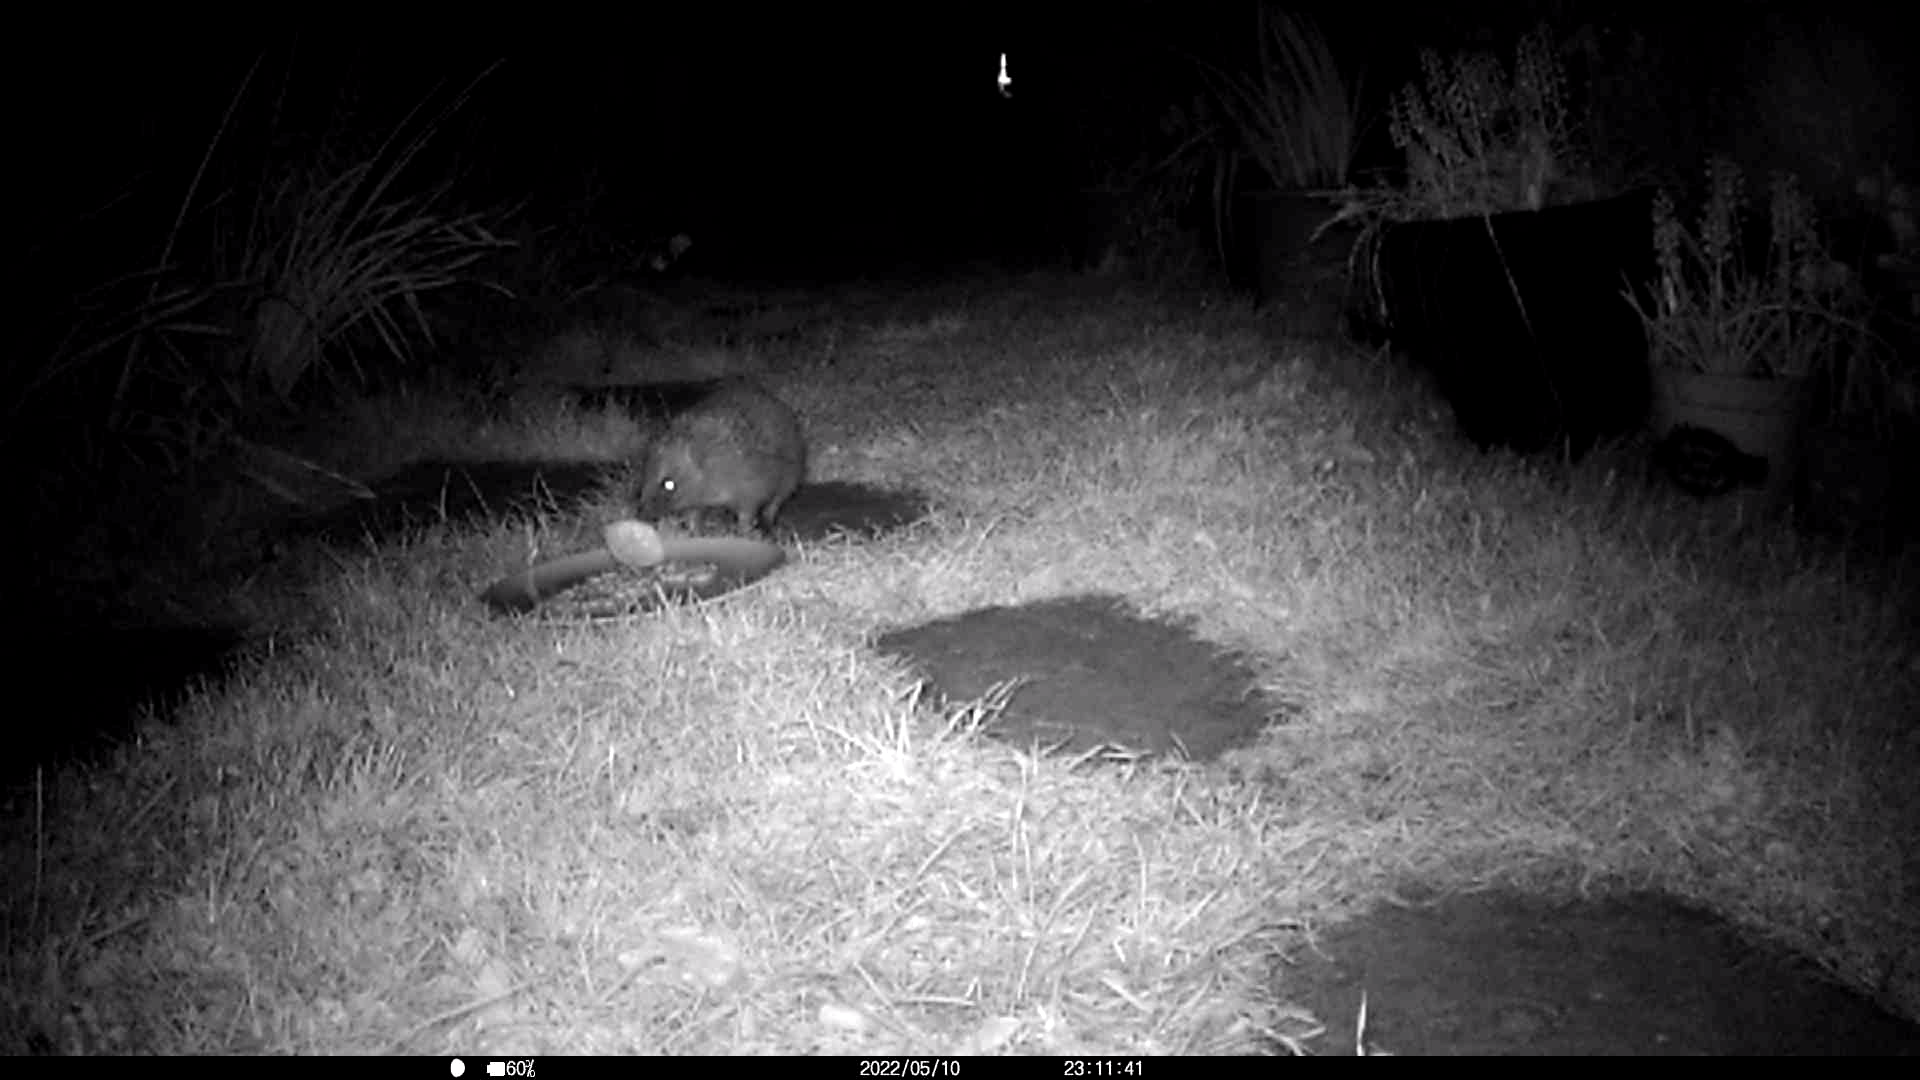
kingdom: Animalia
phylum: Chordata
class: Mammalia
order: Erinaceomorpha
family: Erinaceidae
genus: Erinaceus
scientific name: Erinaceus europaeus
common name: West european hedgehog
